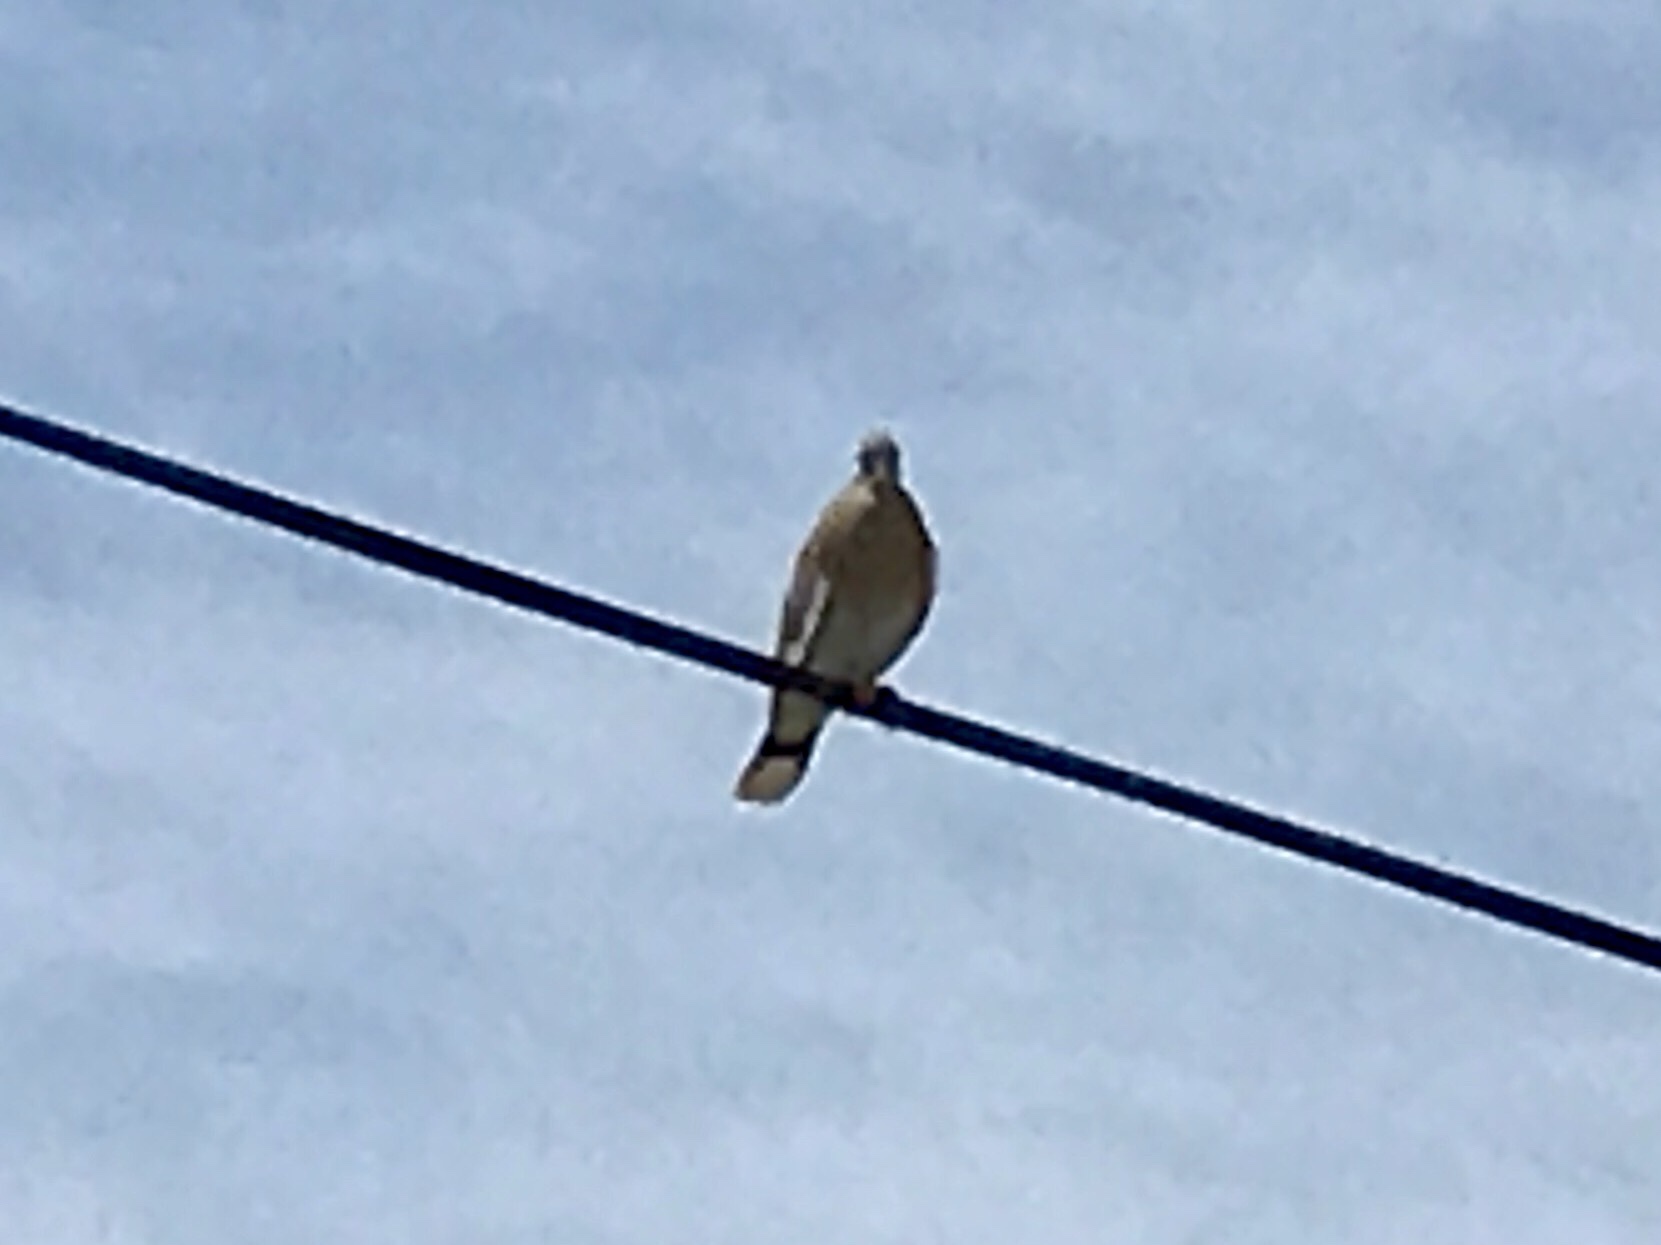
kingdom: Animalia
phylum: Chordata
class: Aves
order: Columbiformes
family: Columbidae
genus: Zenaida
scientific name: Zenaida asiatica
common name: White-winged dove
